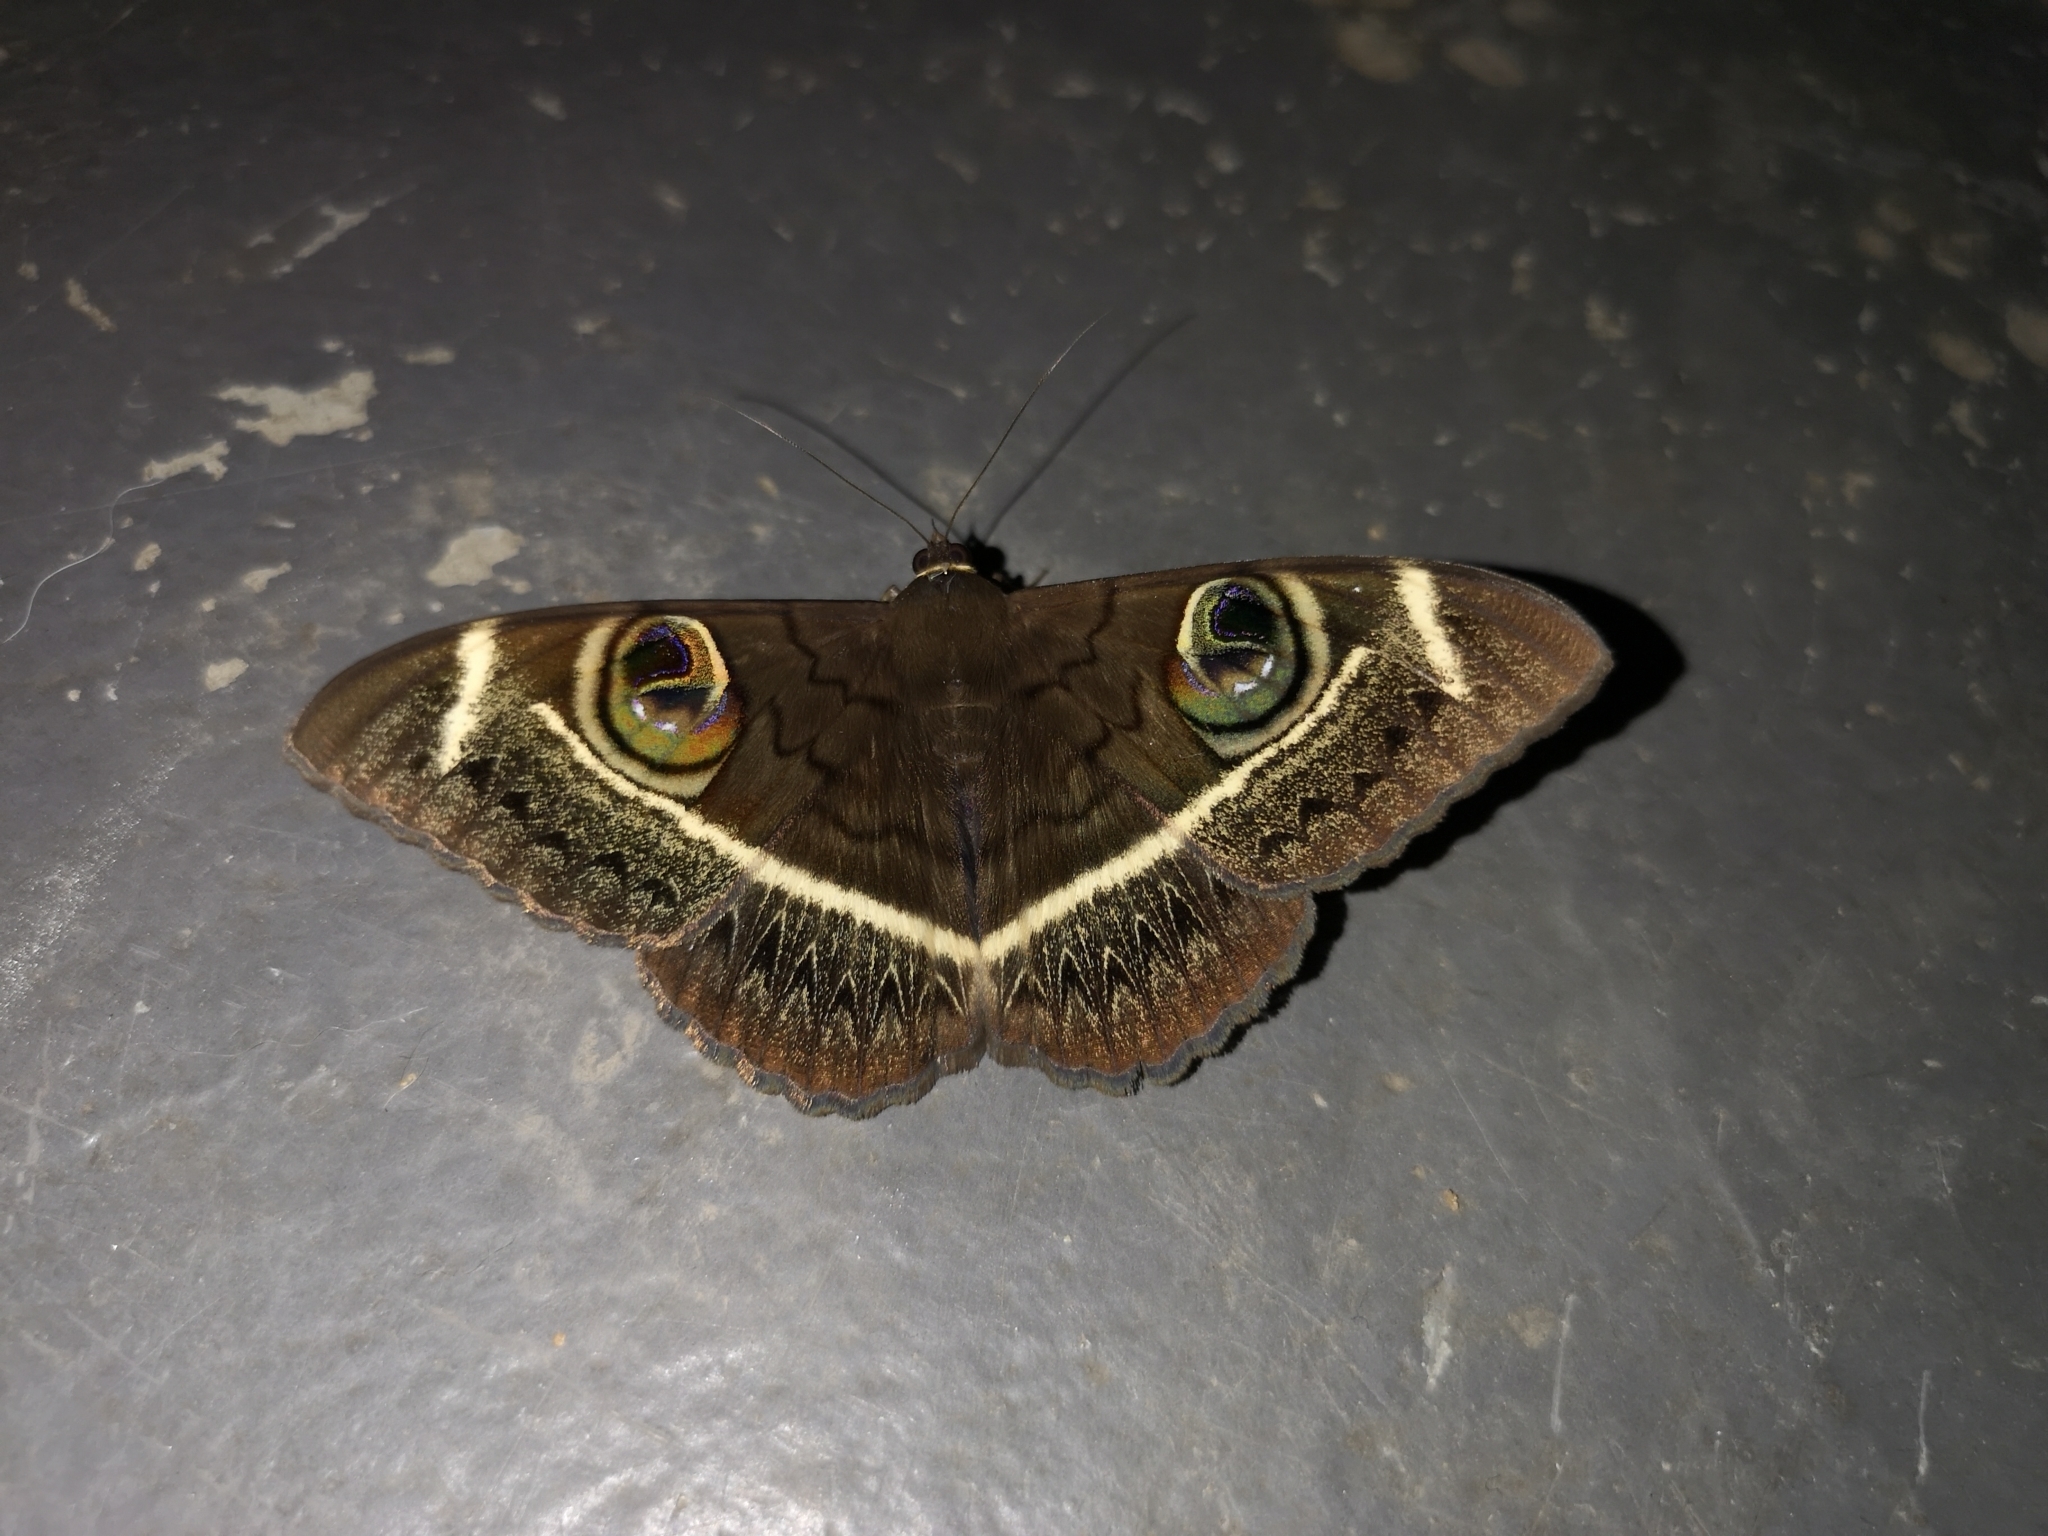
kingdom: Animalia
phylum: Arthropoda
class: Insecta
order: Lepidoptera
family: Erebidae
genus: Cyligramma
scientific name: Cyligramma latona
